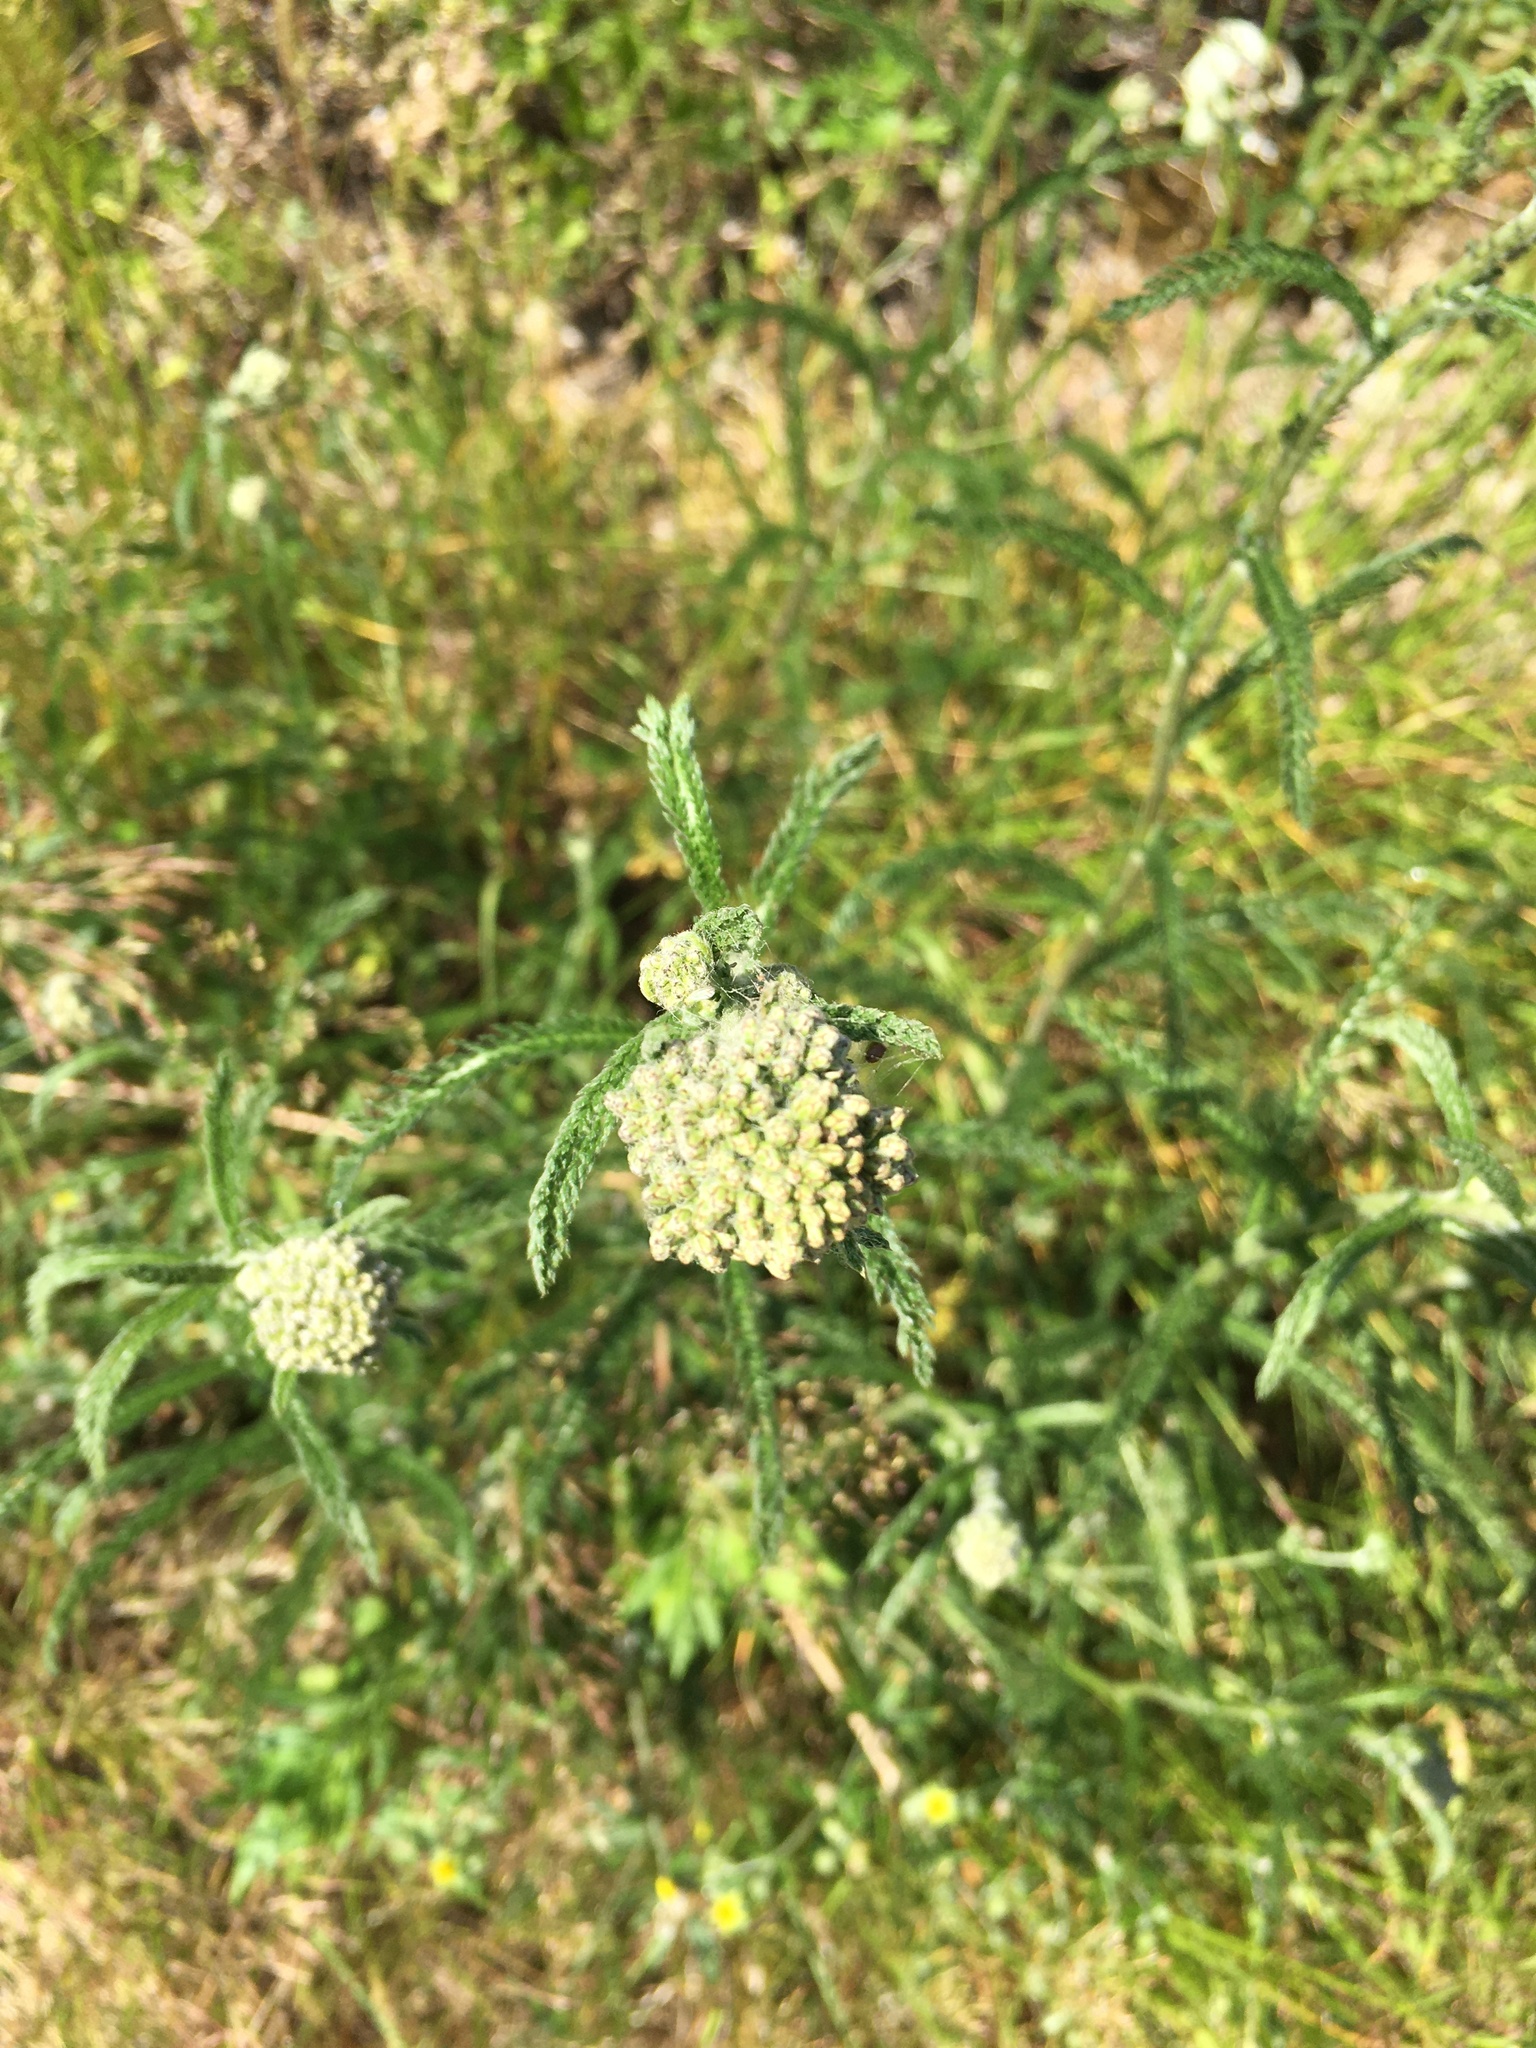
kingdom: Plantae
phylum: Tracheophyta
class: Magnoliopsida
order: Asterales
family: Asteraceae
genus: Achillea
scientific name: Achillea millefolium
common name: Yarrow
